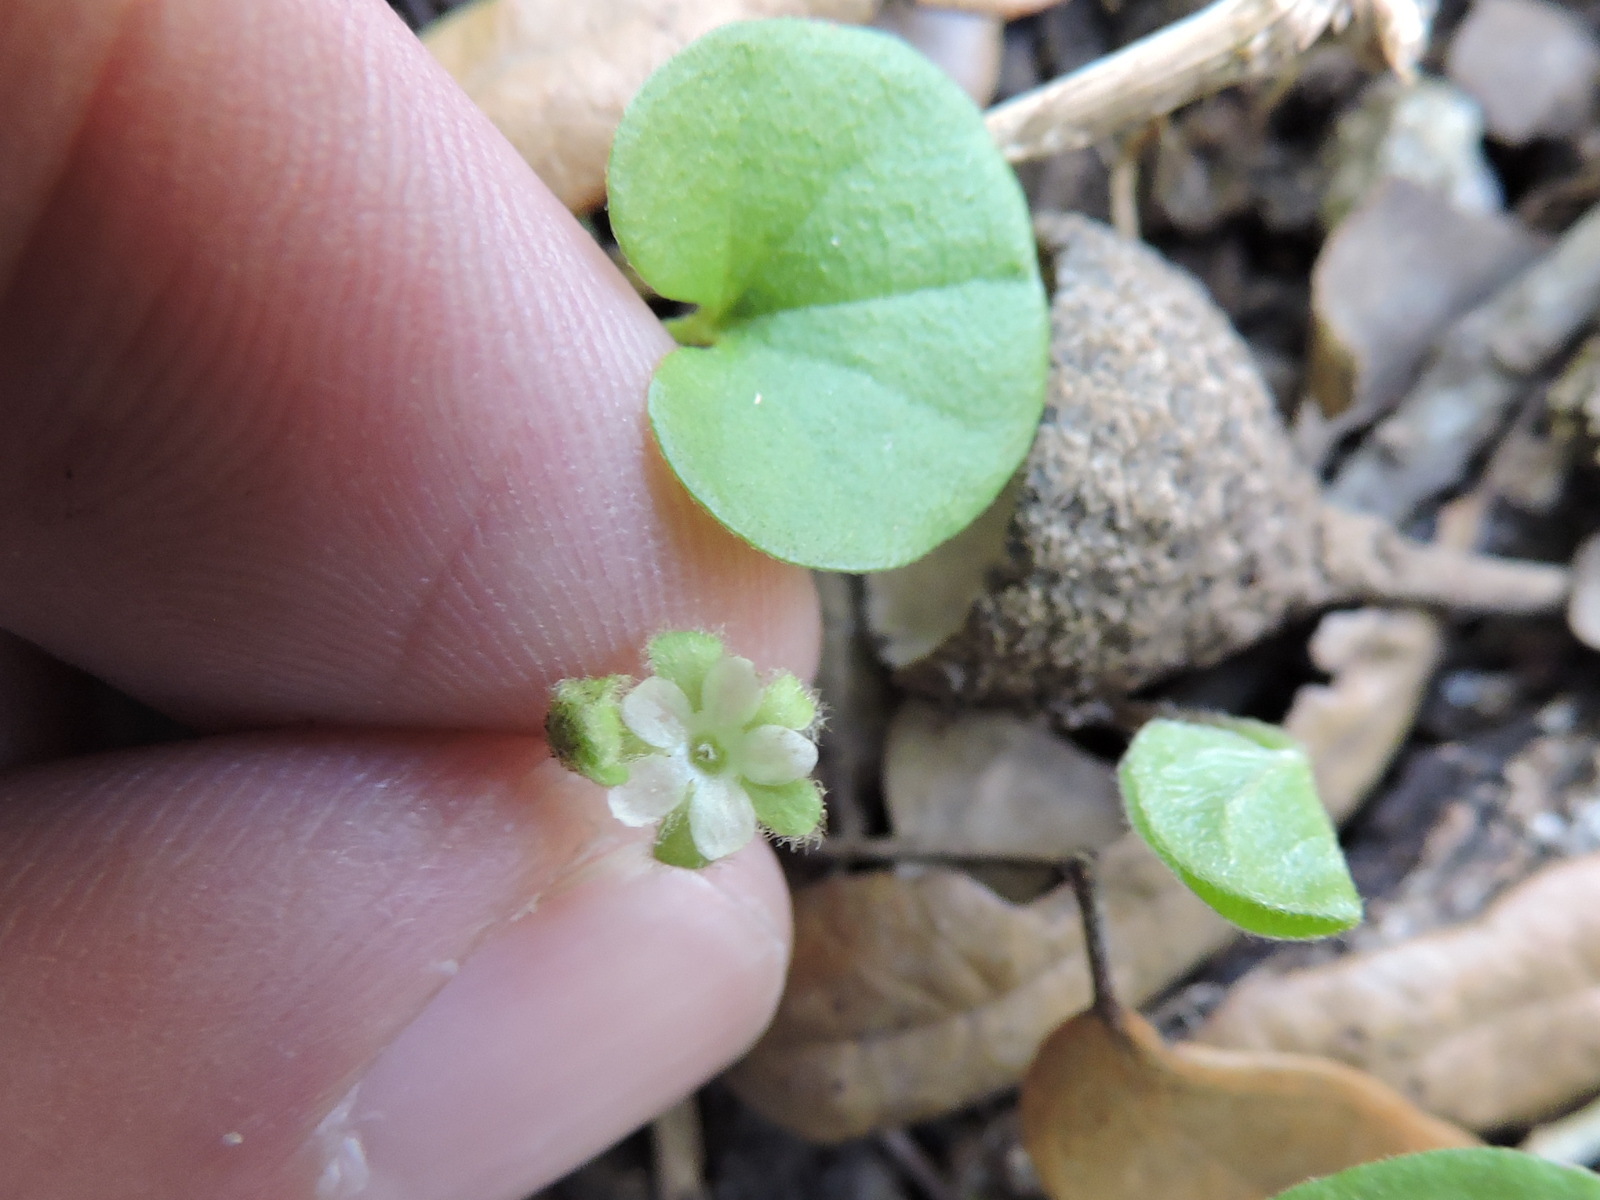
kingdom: Plantae
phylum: Tracheophyta
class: Magnoliopsida
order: Solanales
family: Convolvulaceae
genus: Dichondra
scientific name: Dichondra carolinensis
